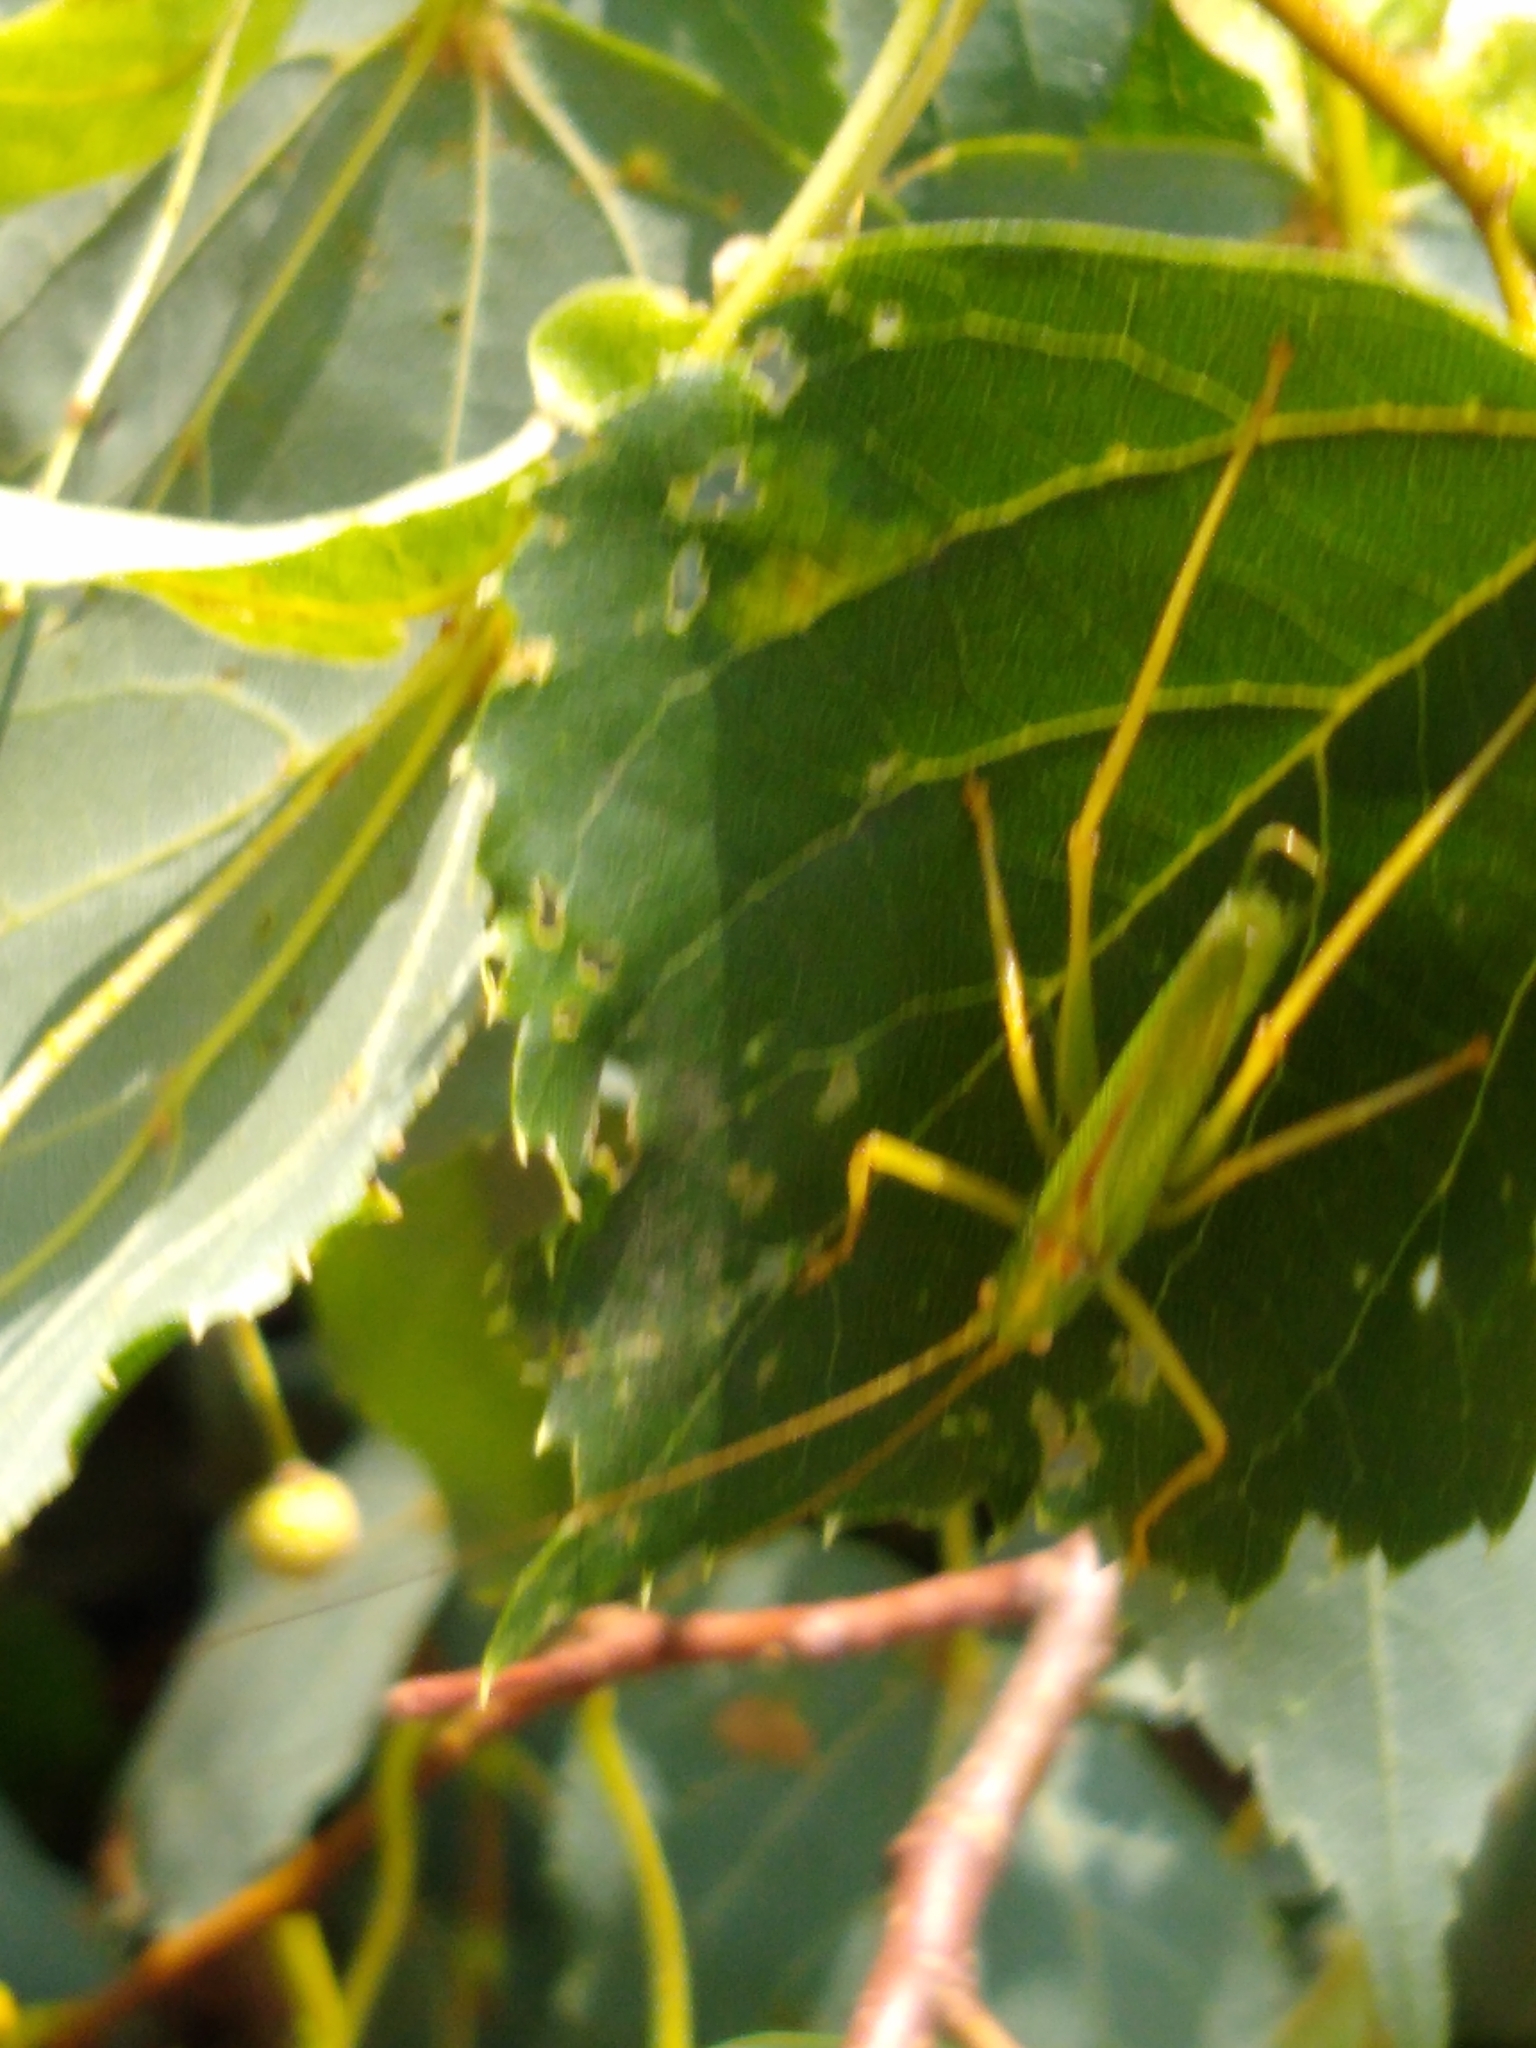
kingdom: Animalia
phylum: Arthropoda
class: Insecta
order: Orthoptera
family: Tettigoniidae
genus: Meconema
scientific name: Meconema thalassinum
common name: Oak bush-cricket
